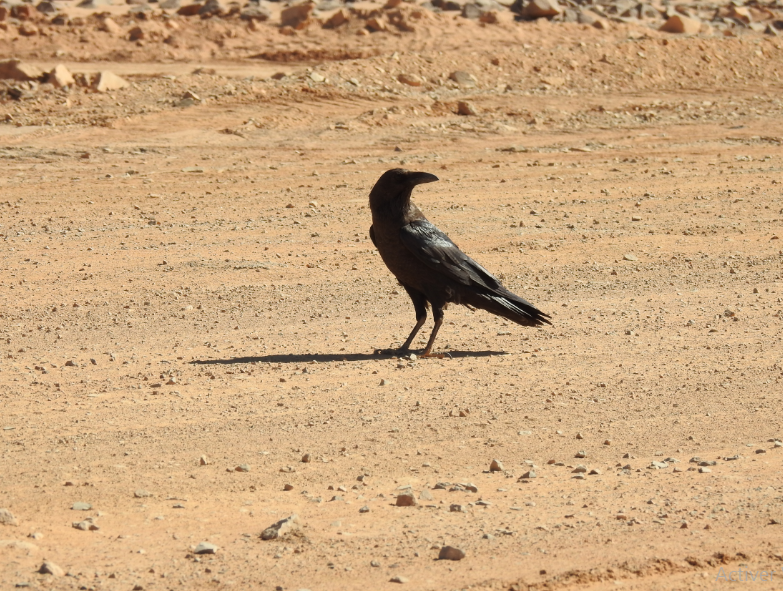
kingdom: Animalia
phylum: Chordata
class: Aves
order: Passeriformes
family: Corvidae
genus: Corvus
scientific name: Corvus ruficollis
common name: Brown-necked raven
